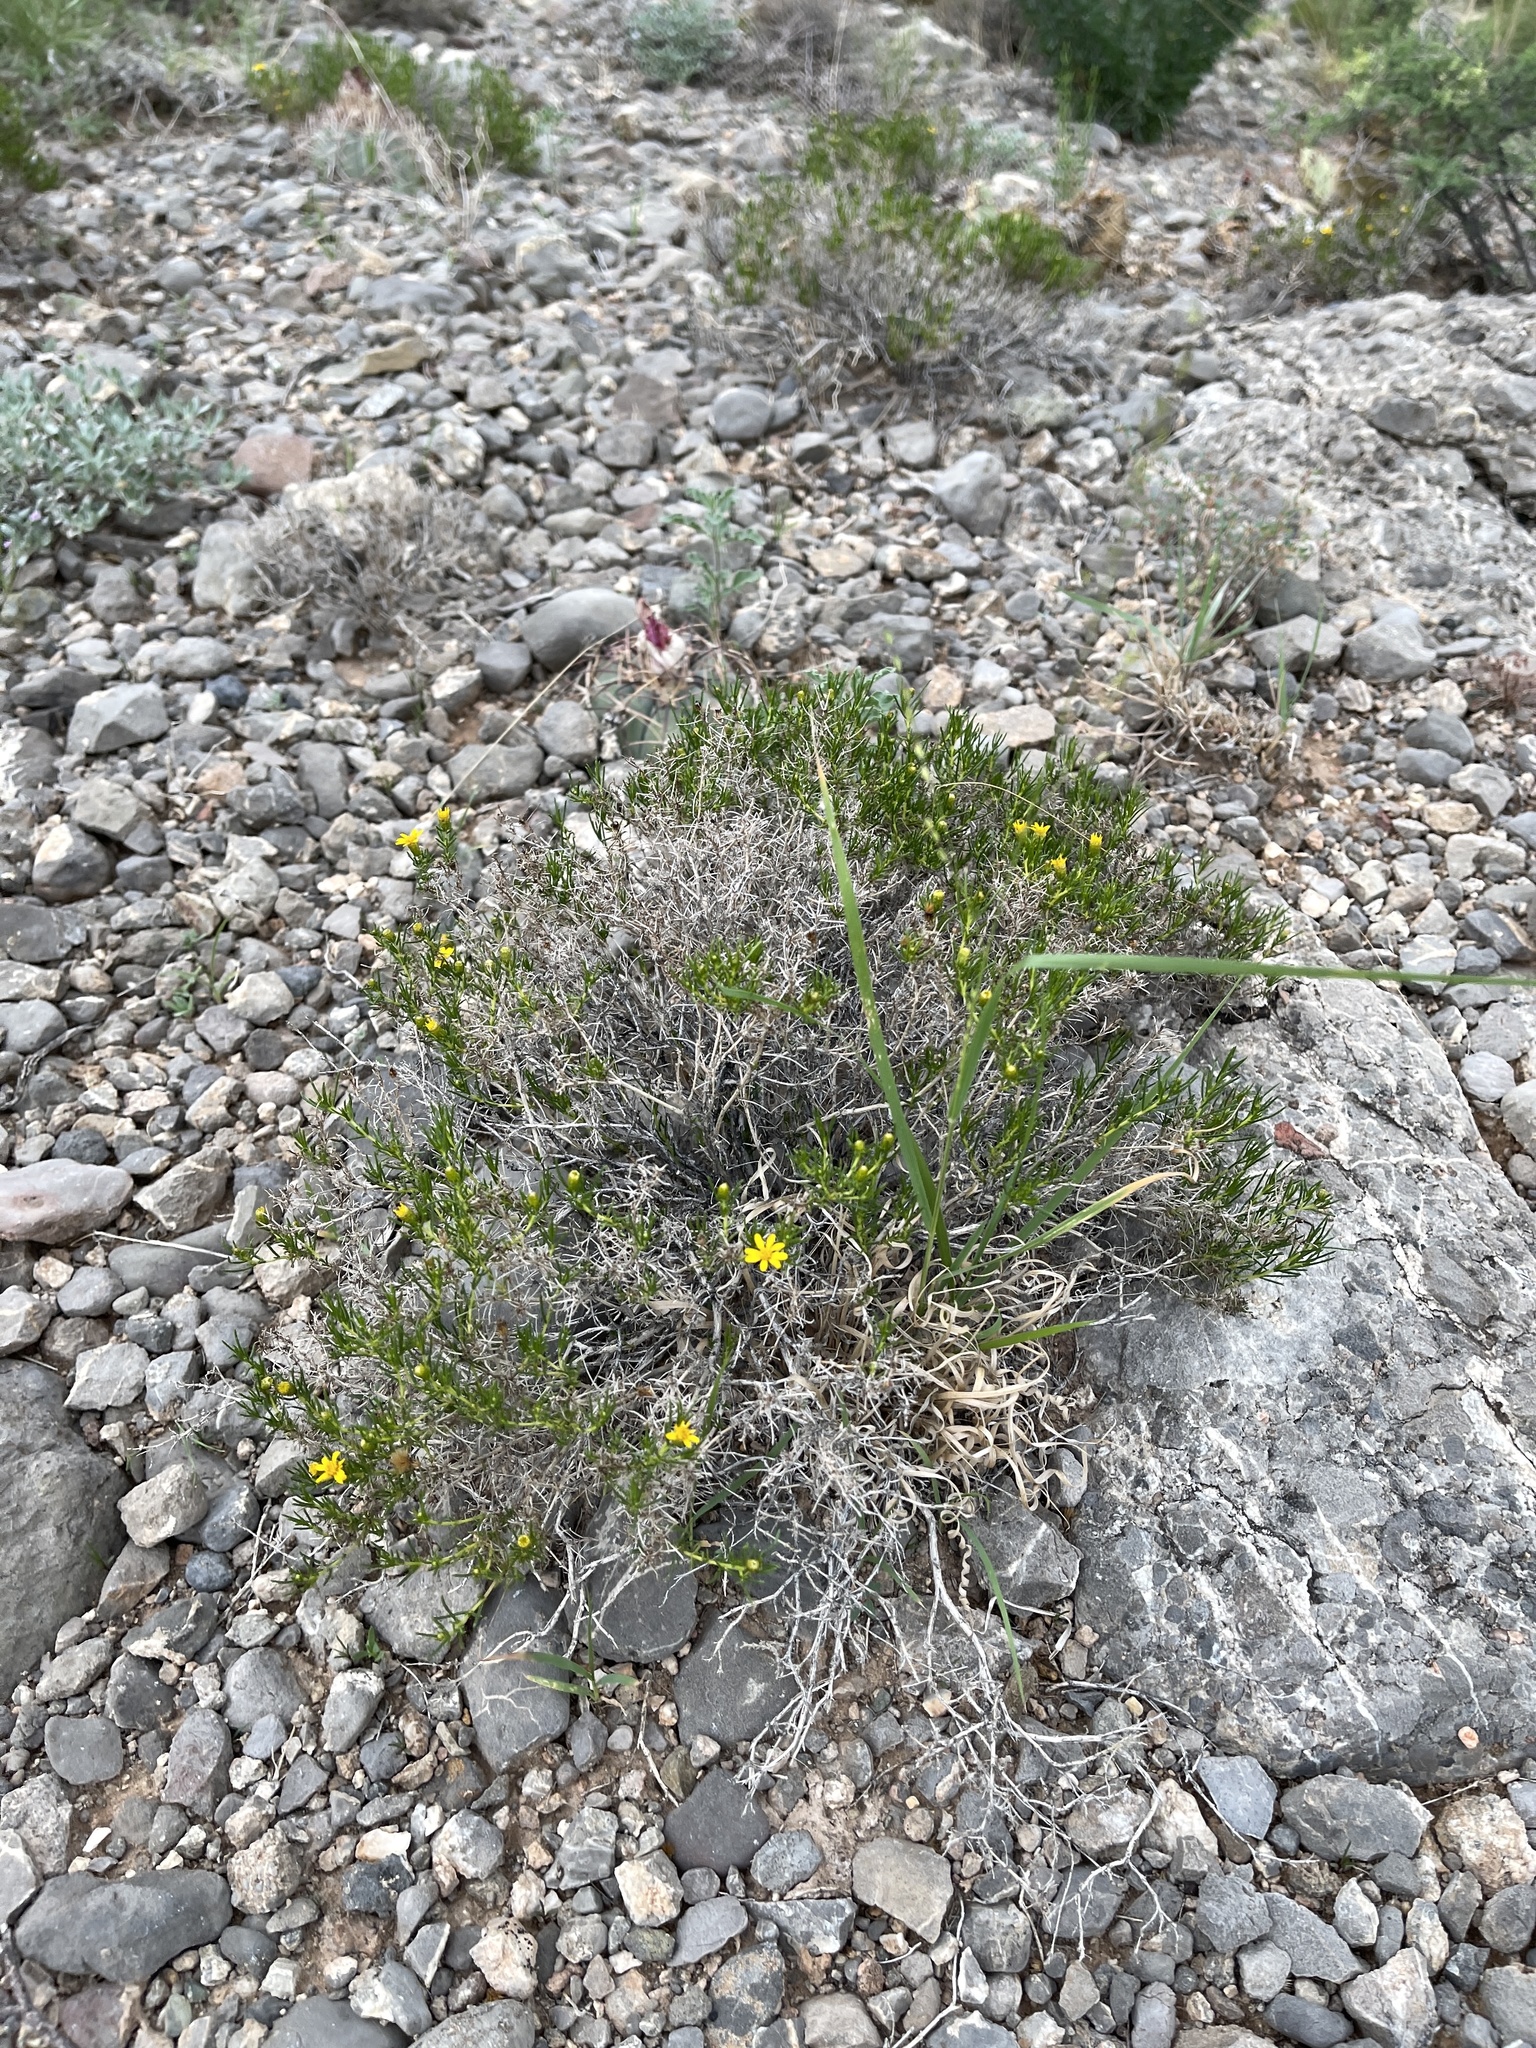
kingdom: Plantae
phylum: Tracheophyta
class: Magnoliopsida
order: Asterales
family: Asteraceae
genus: Thymophylla
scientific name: Thymophylla acerosa
